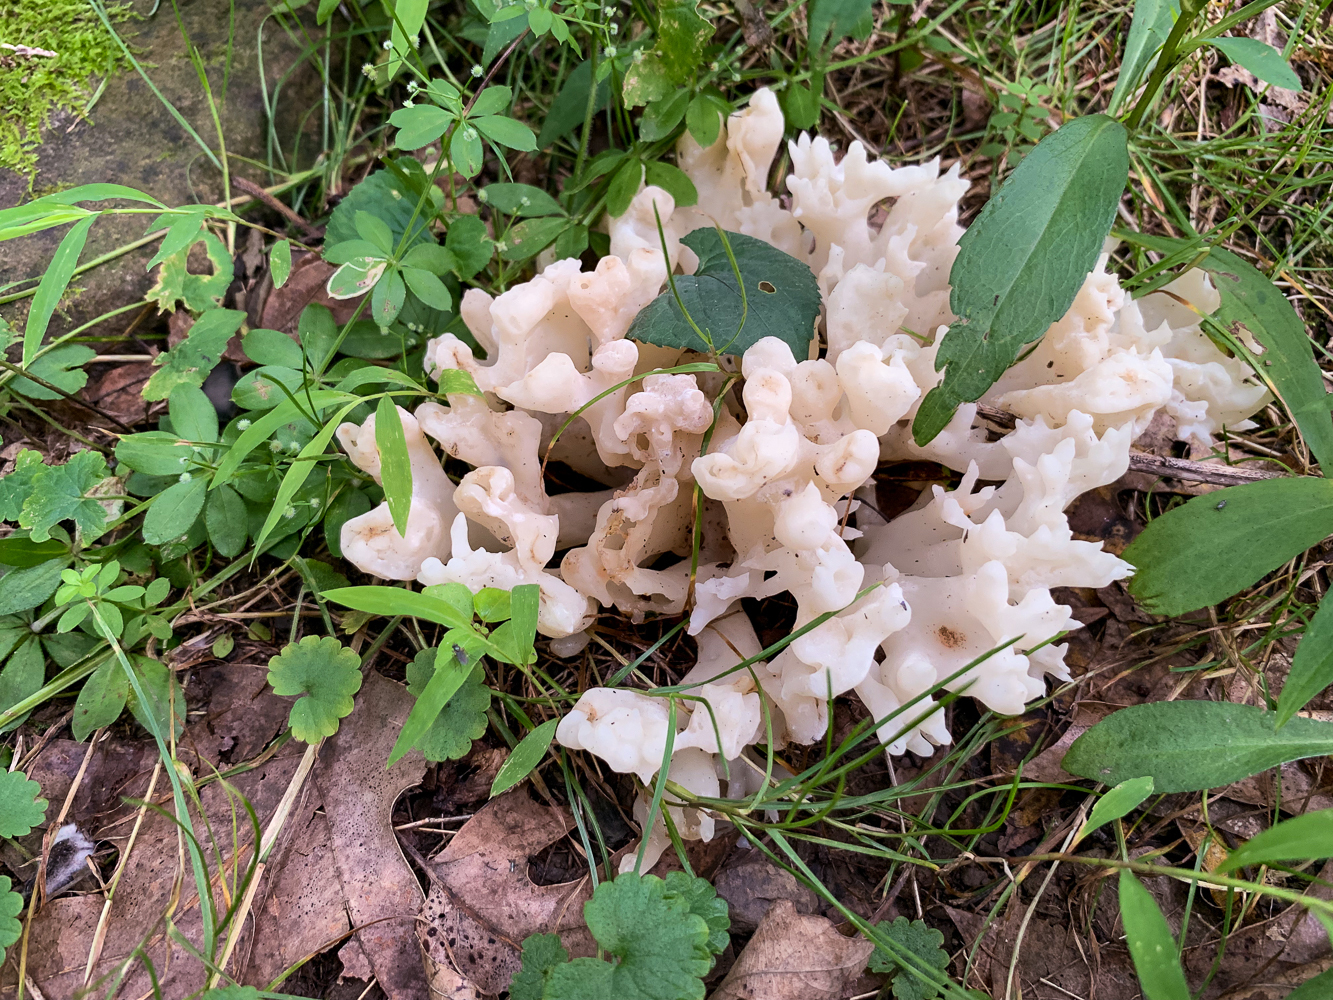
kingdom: Fungi
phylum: Basidiomycota
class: Agaricomycetes
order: Sebacinales
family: Sebacinaceae
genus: Sebacina
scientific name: Sebacina sparassoidea
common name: White coral jelly fungus
